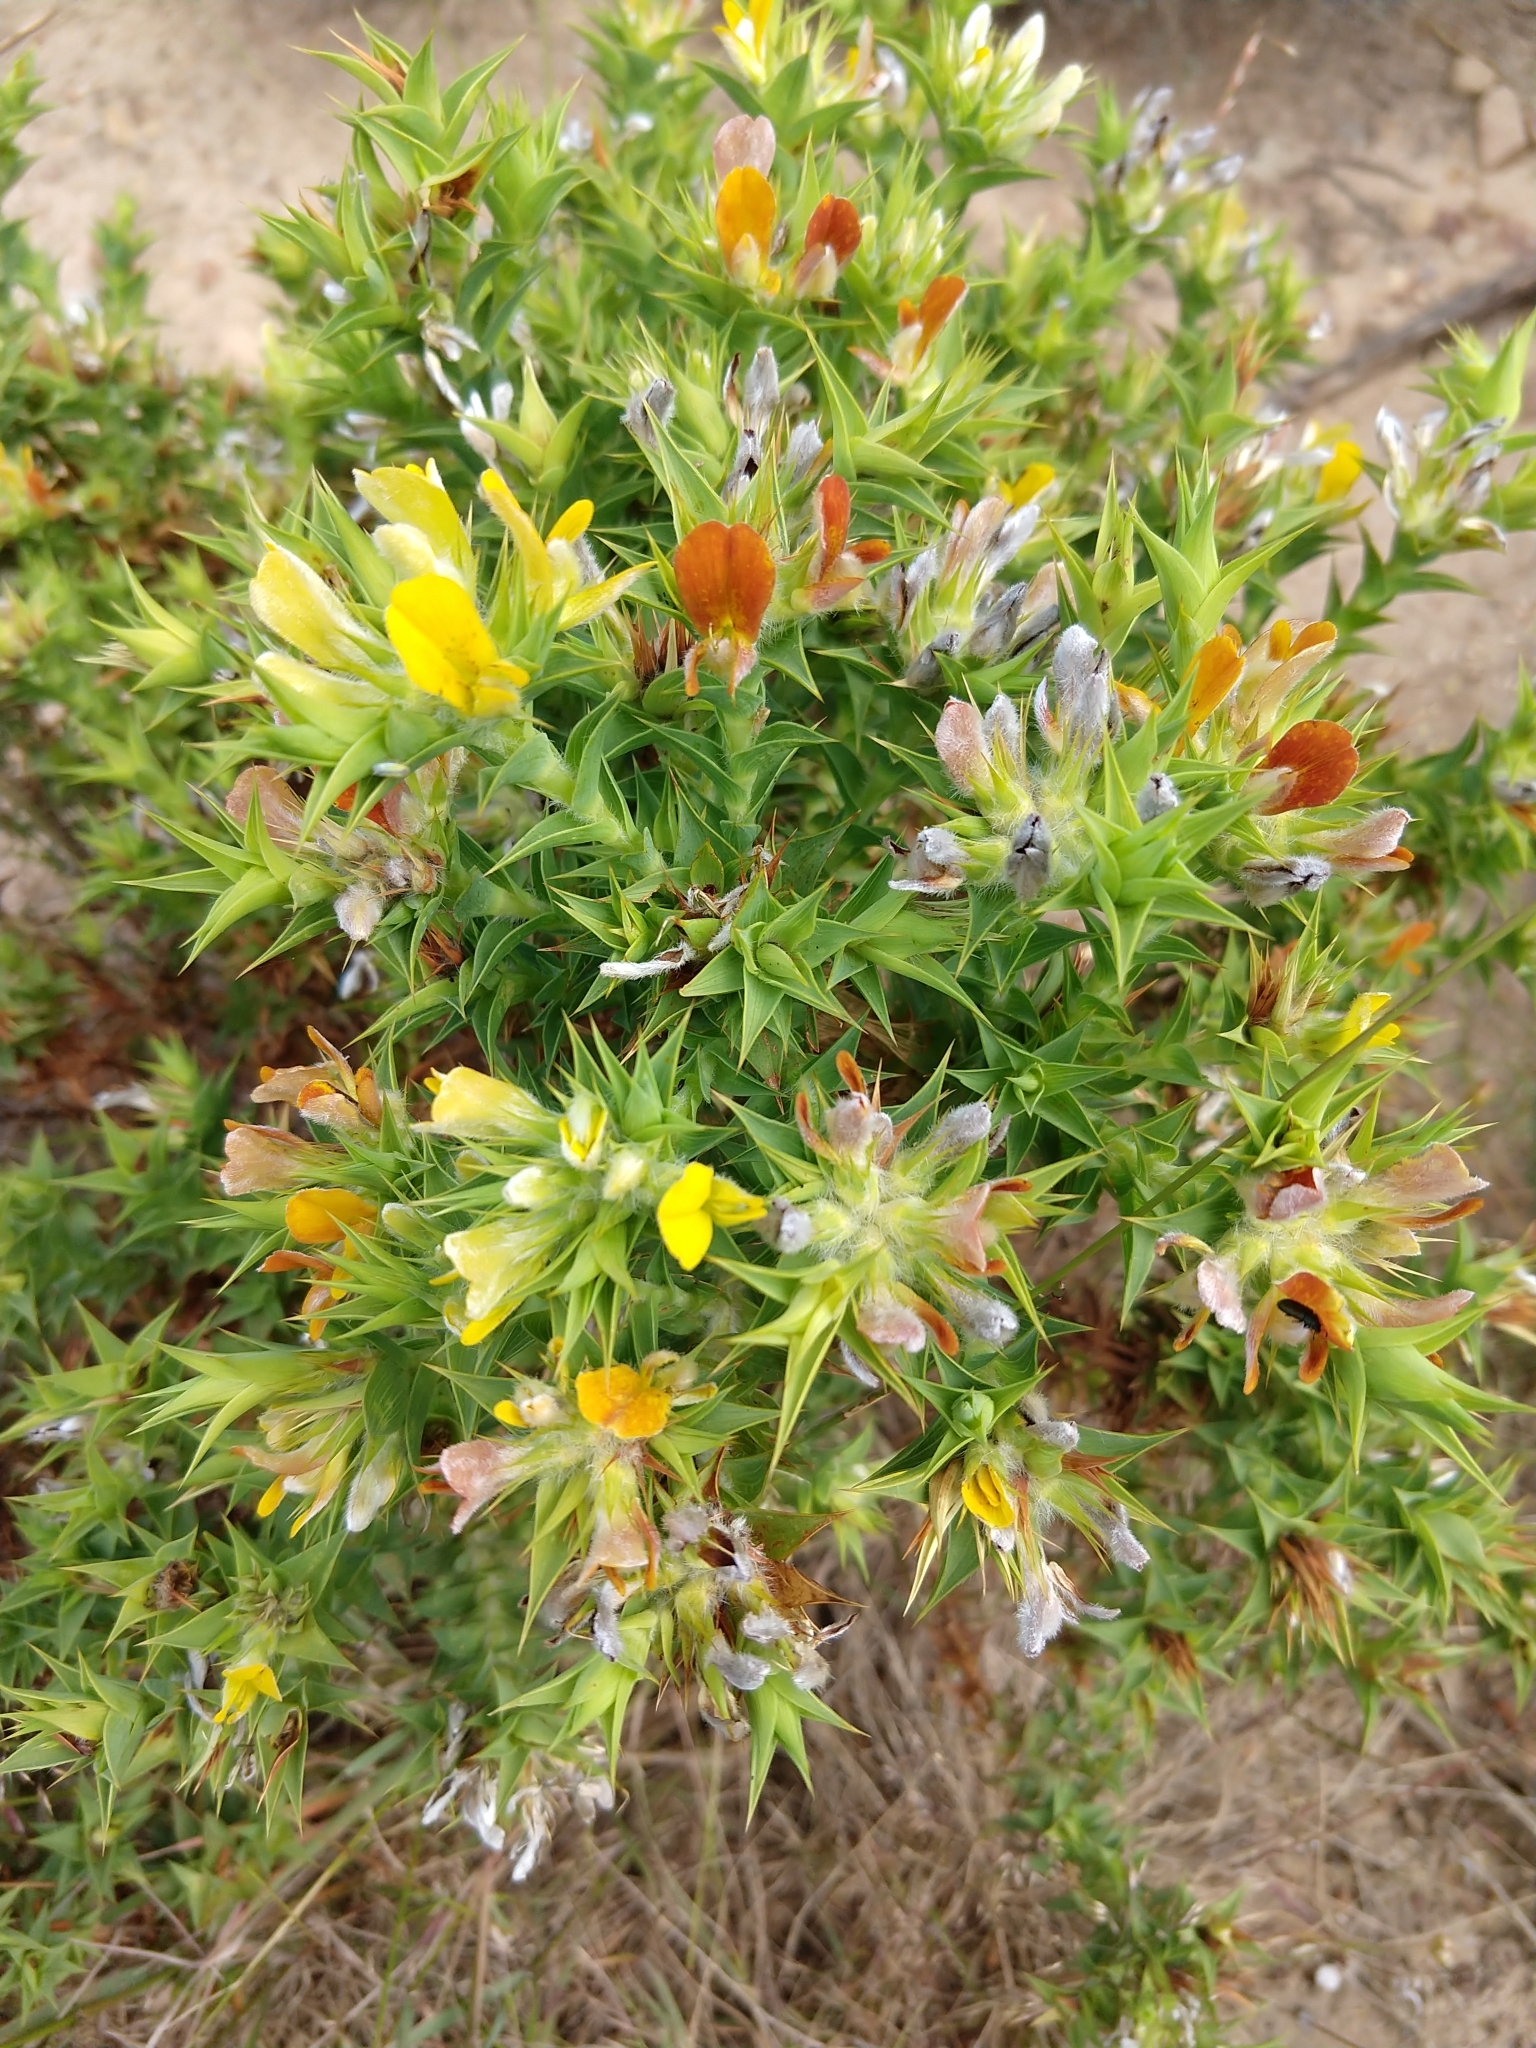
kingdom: Plantae
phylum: Tracheophyta
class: Magnoliopsida
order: Fabales
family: Fabaceae
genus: Aspalathus
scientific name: Aspalathus cordata
